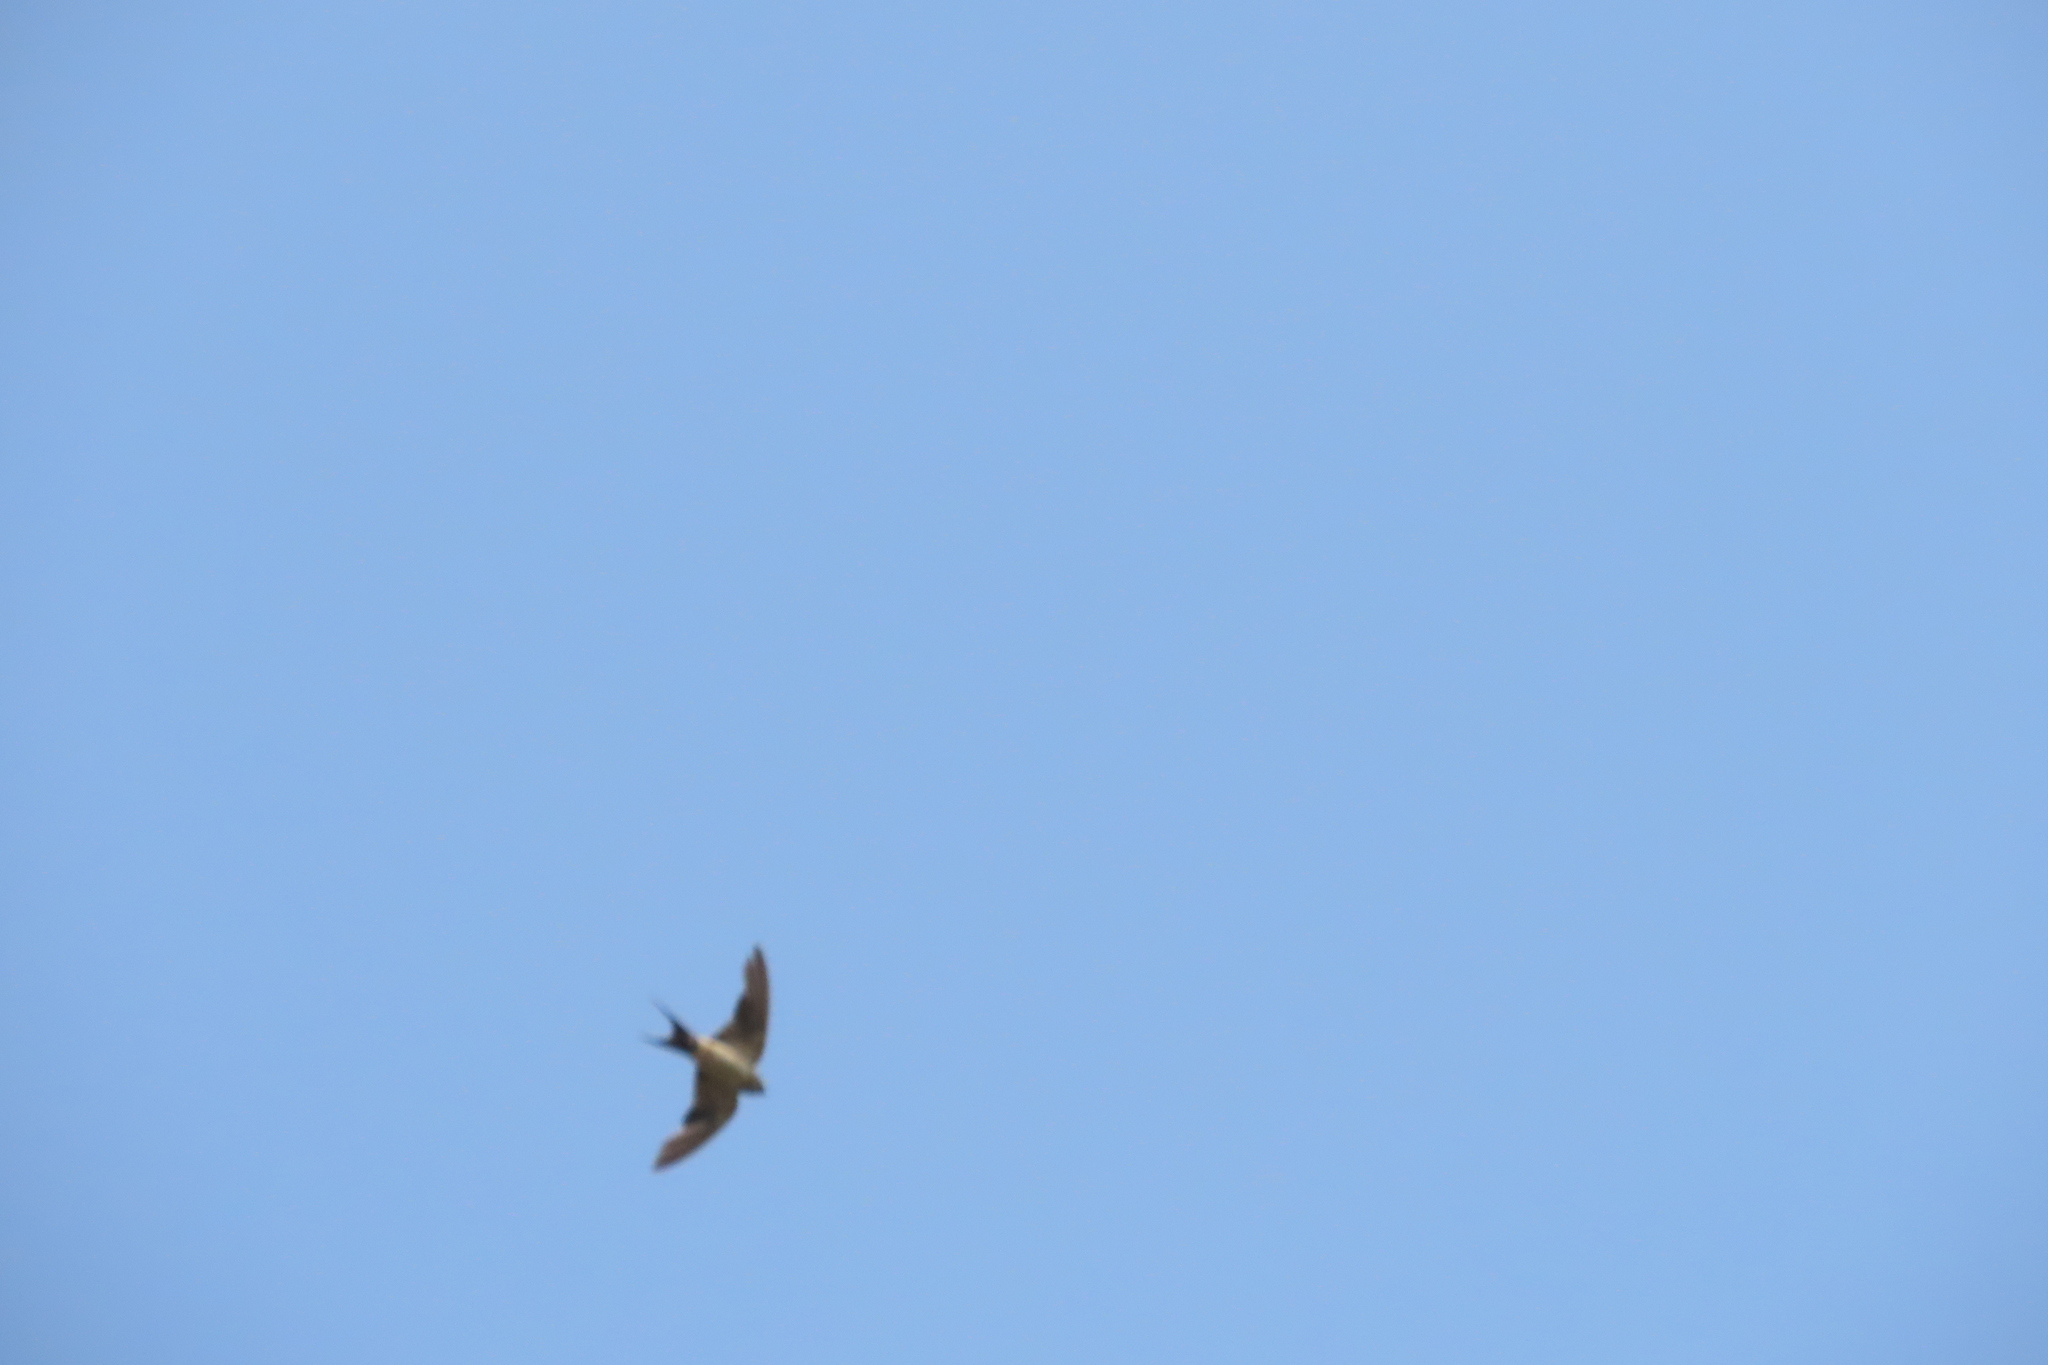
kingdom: Animalia
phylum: Chordata
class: Aves
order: Passeriformes
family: Hirundinidae
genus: Cecropis
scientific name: Cecropis daurica
